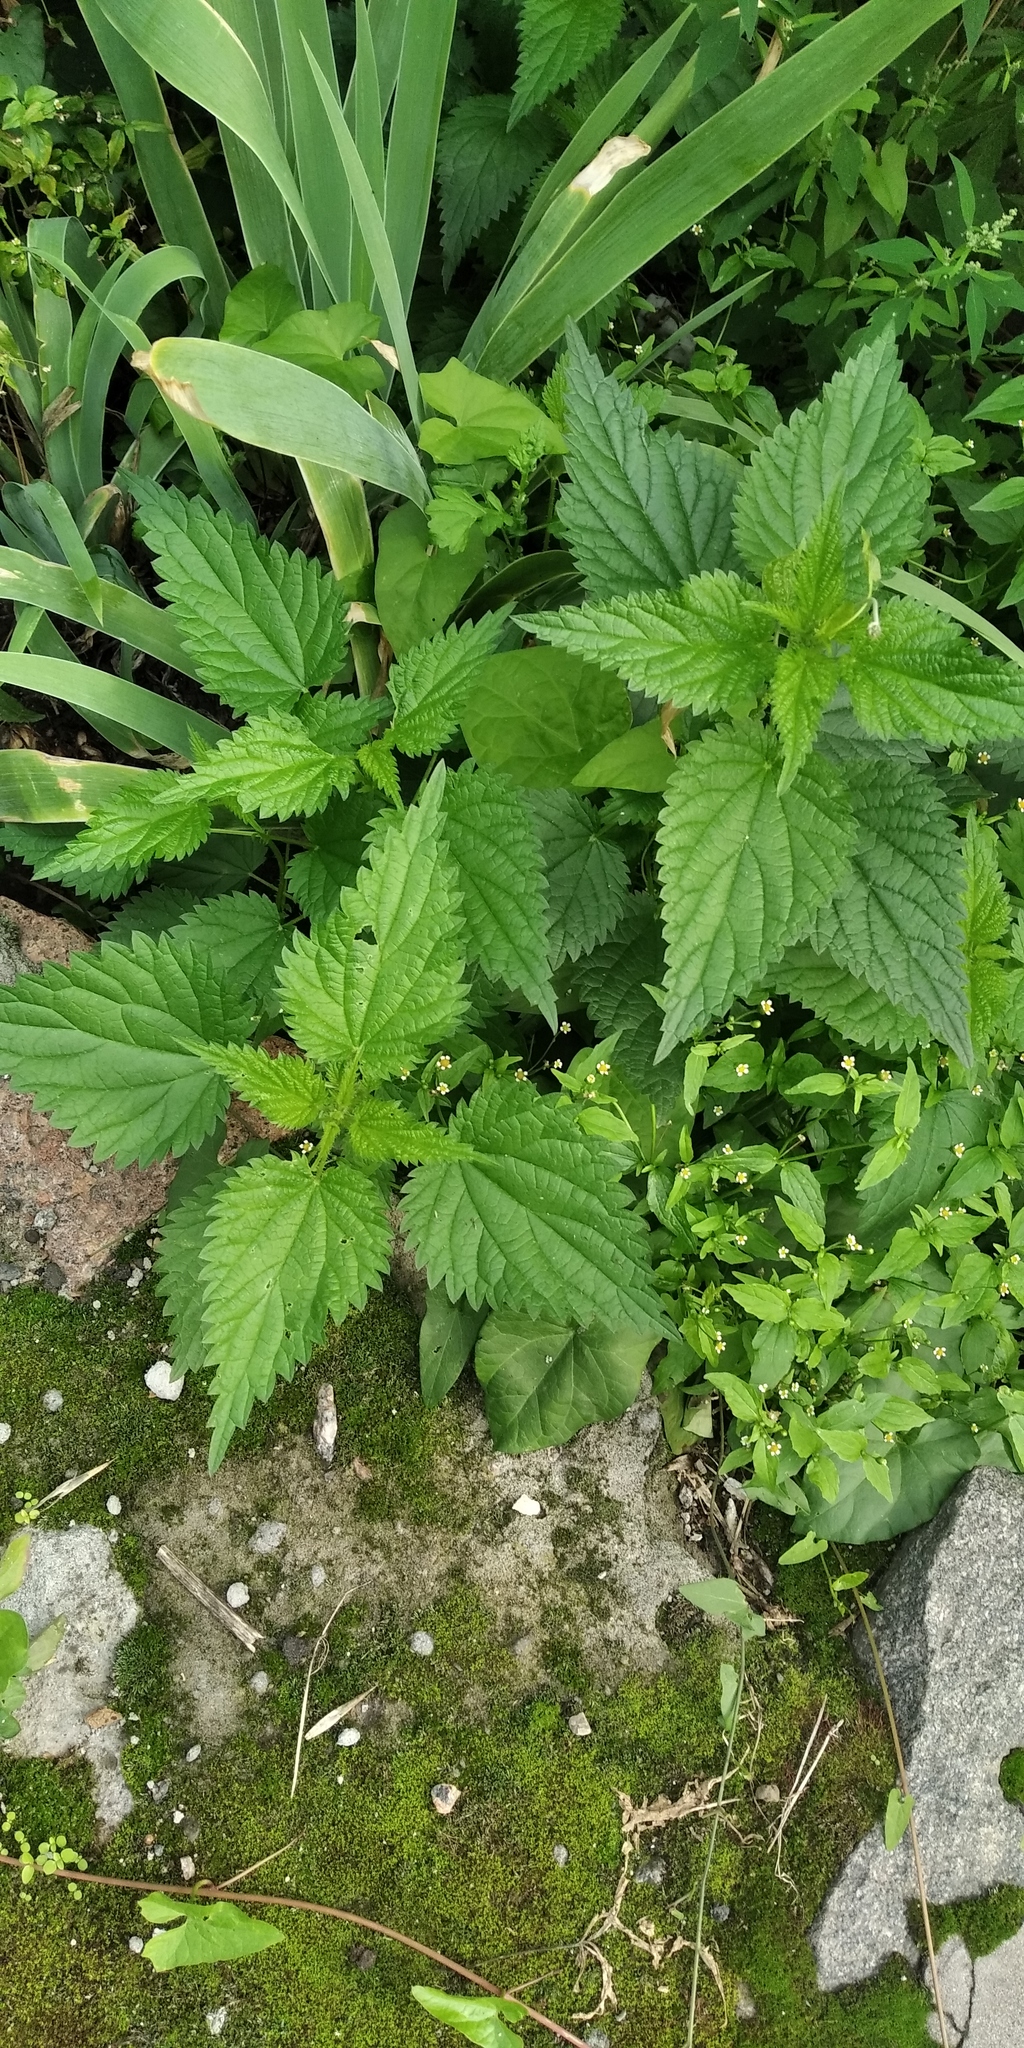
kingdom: Plantae
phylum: Tracheophyta
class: Magnoliopsida
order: Rosales
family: Urticaceae
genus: Urtica
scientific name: Urtica dioica
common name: Common nettle
